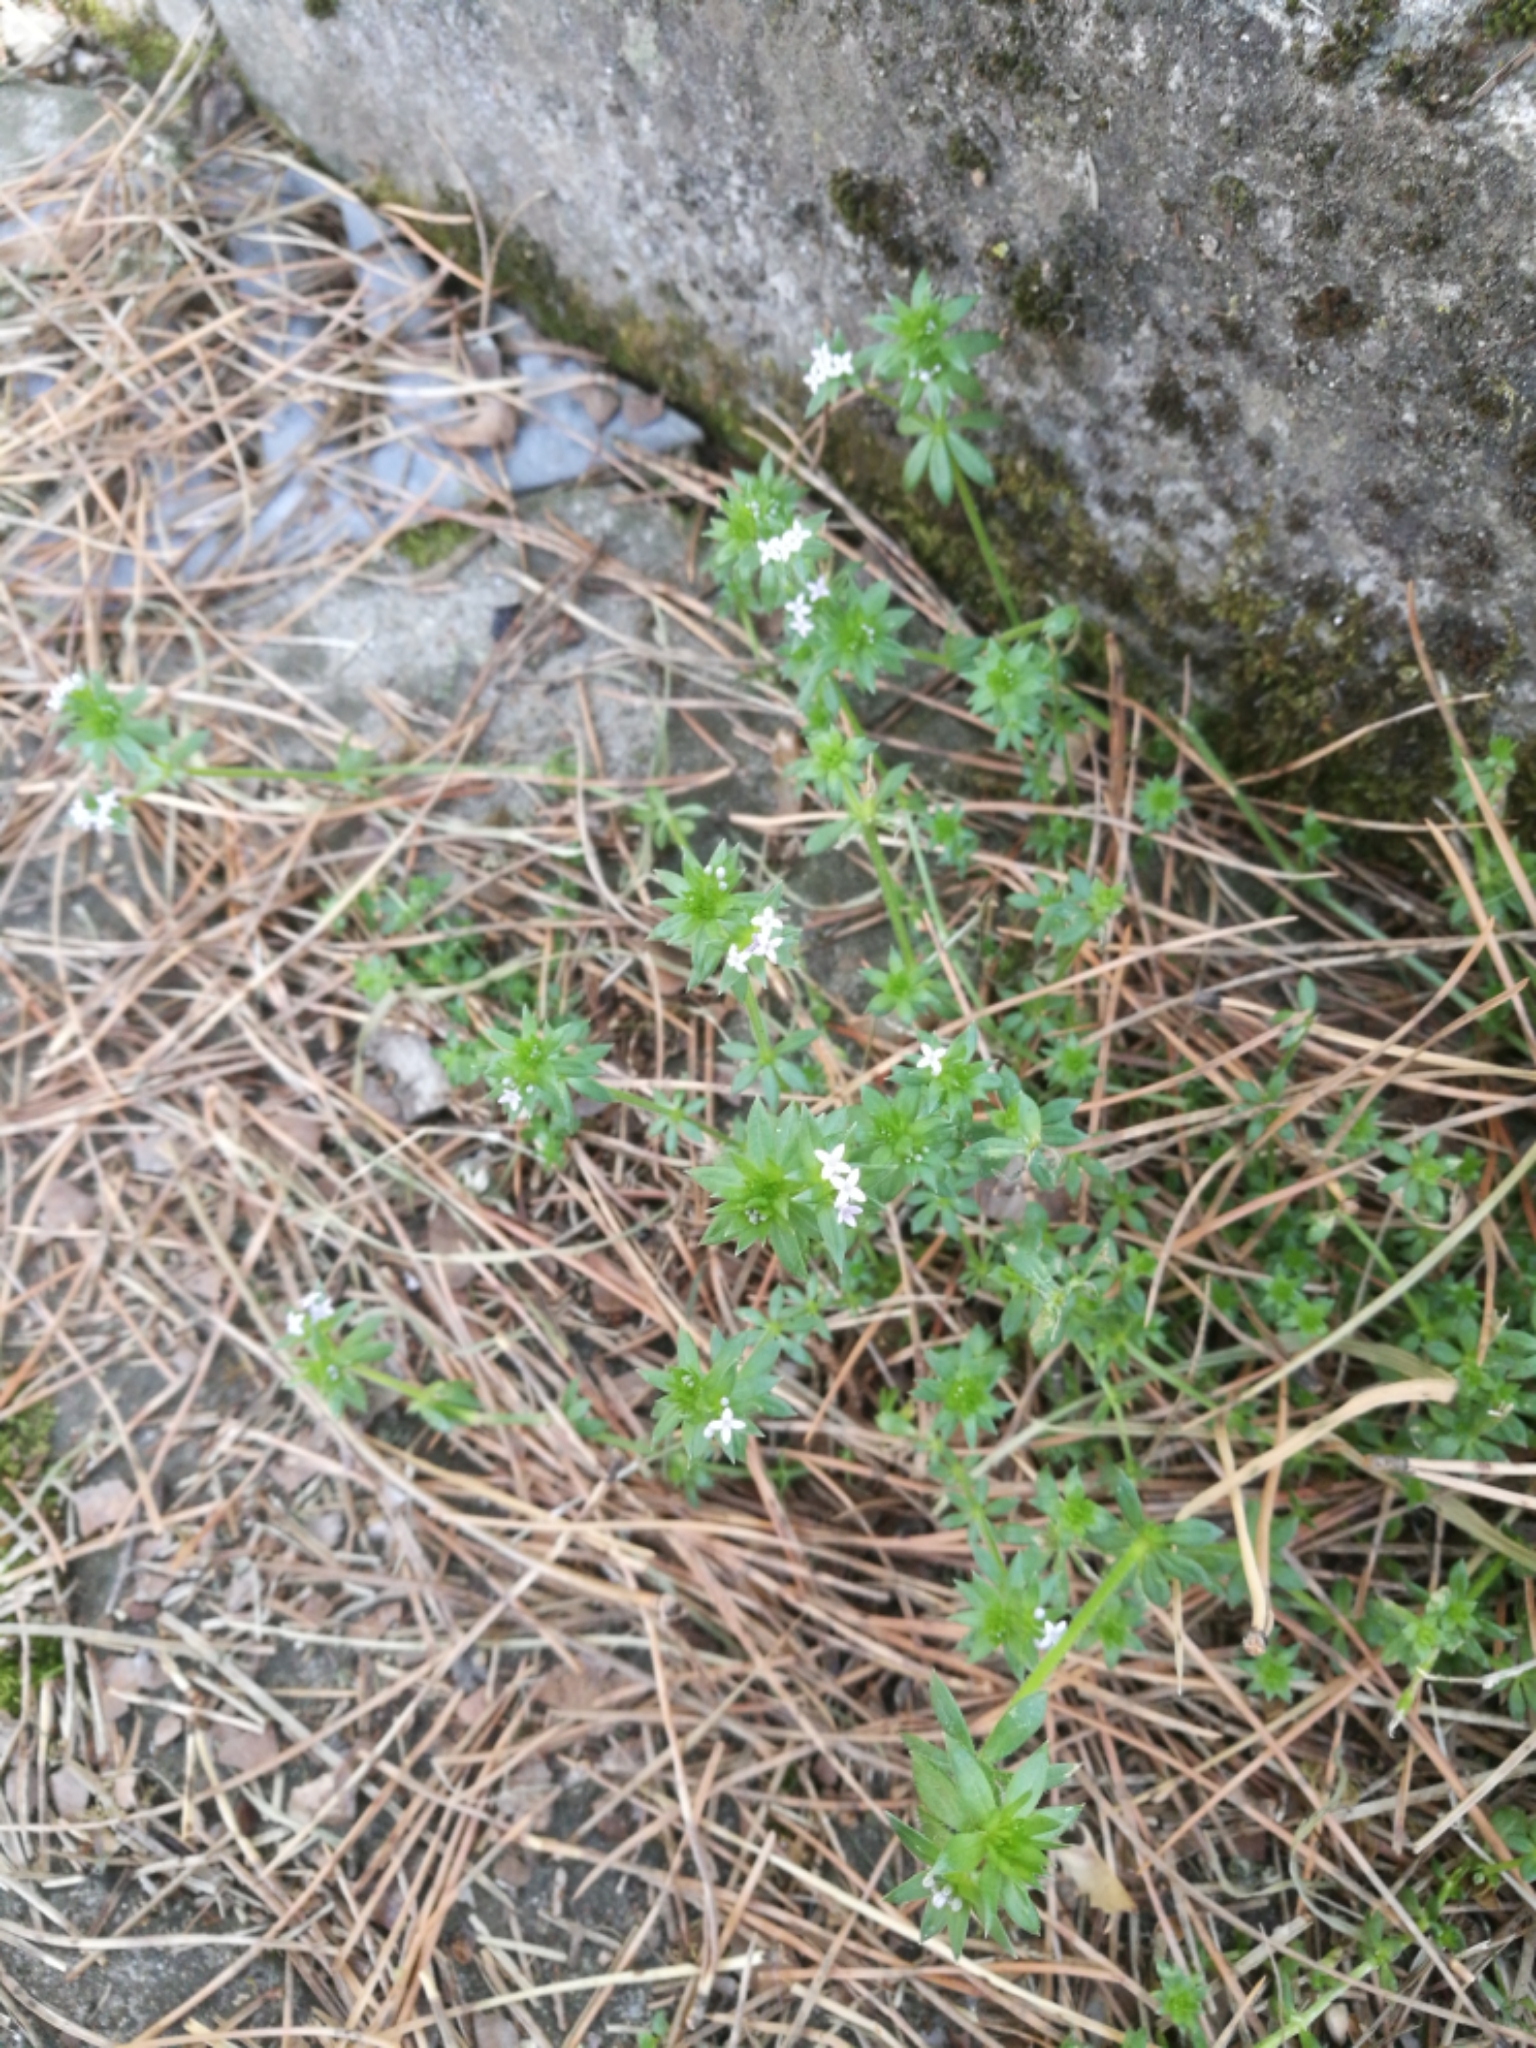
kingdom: Plantae
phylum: Tracheophyta
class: Magnoliopsida
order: Gentianales
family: Rubiaceae
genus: Sherardia
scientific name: Sherardia arvensis
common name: Field madder
